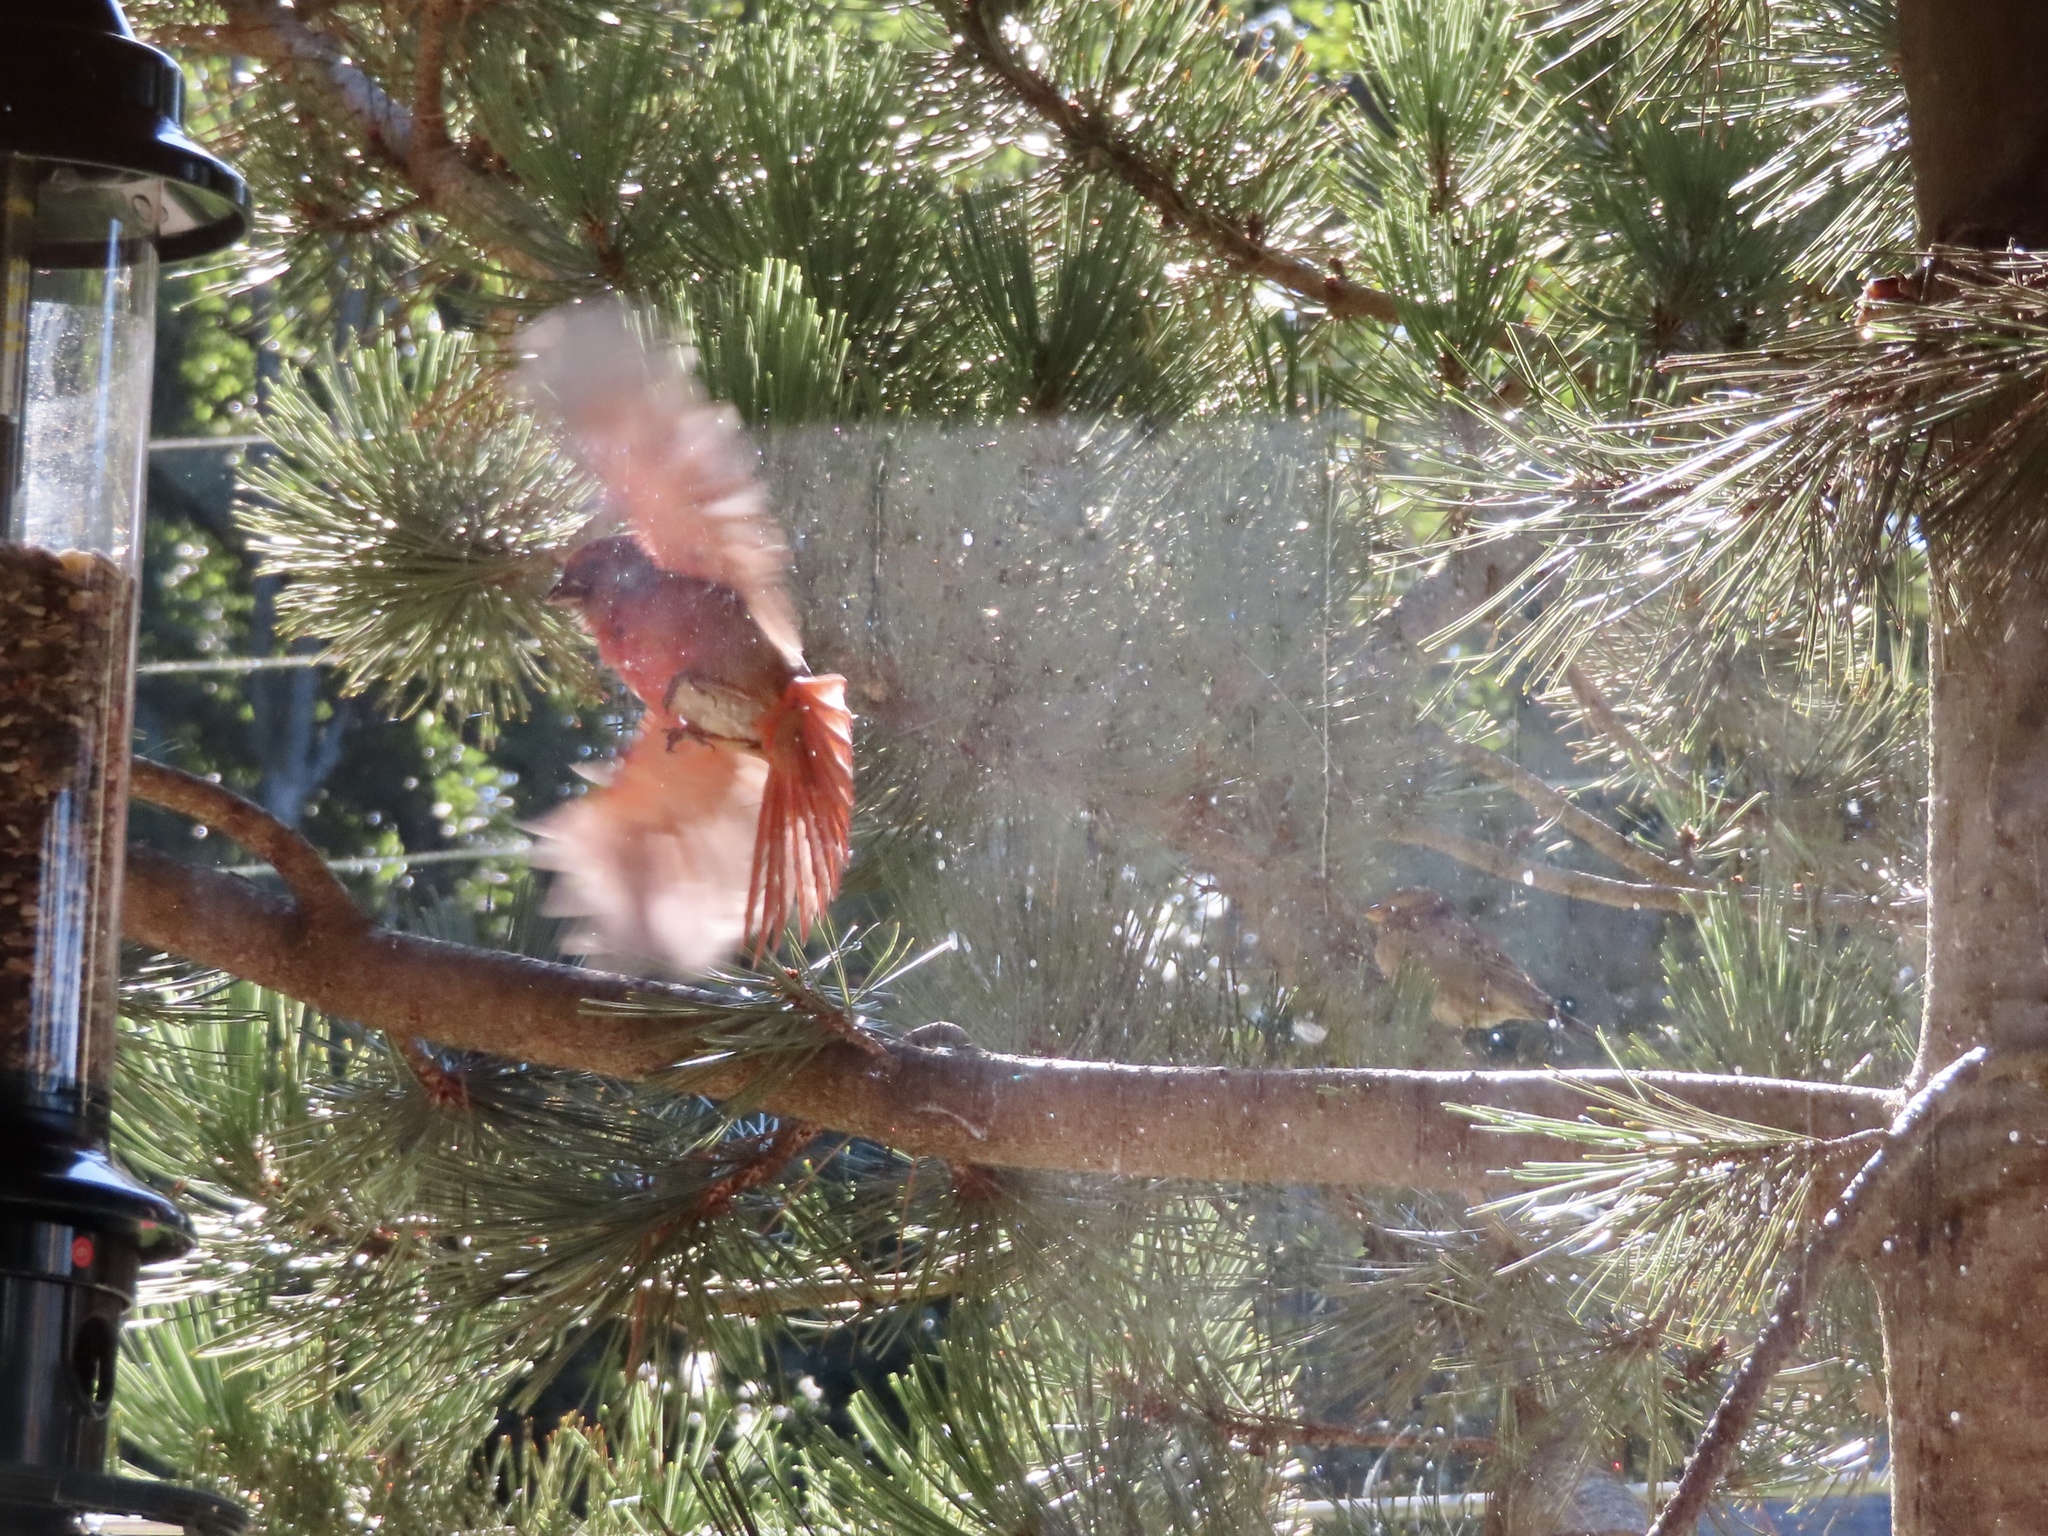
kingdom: Animalia
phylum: Chordata
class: Aves
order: Passeriformes
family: Cardinalidae
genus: Cardinalis
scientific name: Cardinalis cardinalis
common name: Northern cardinal
